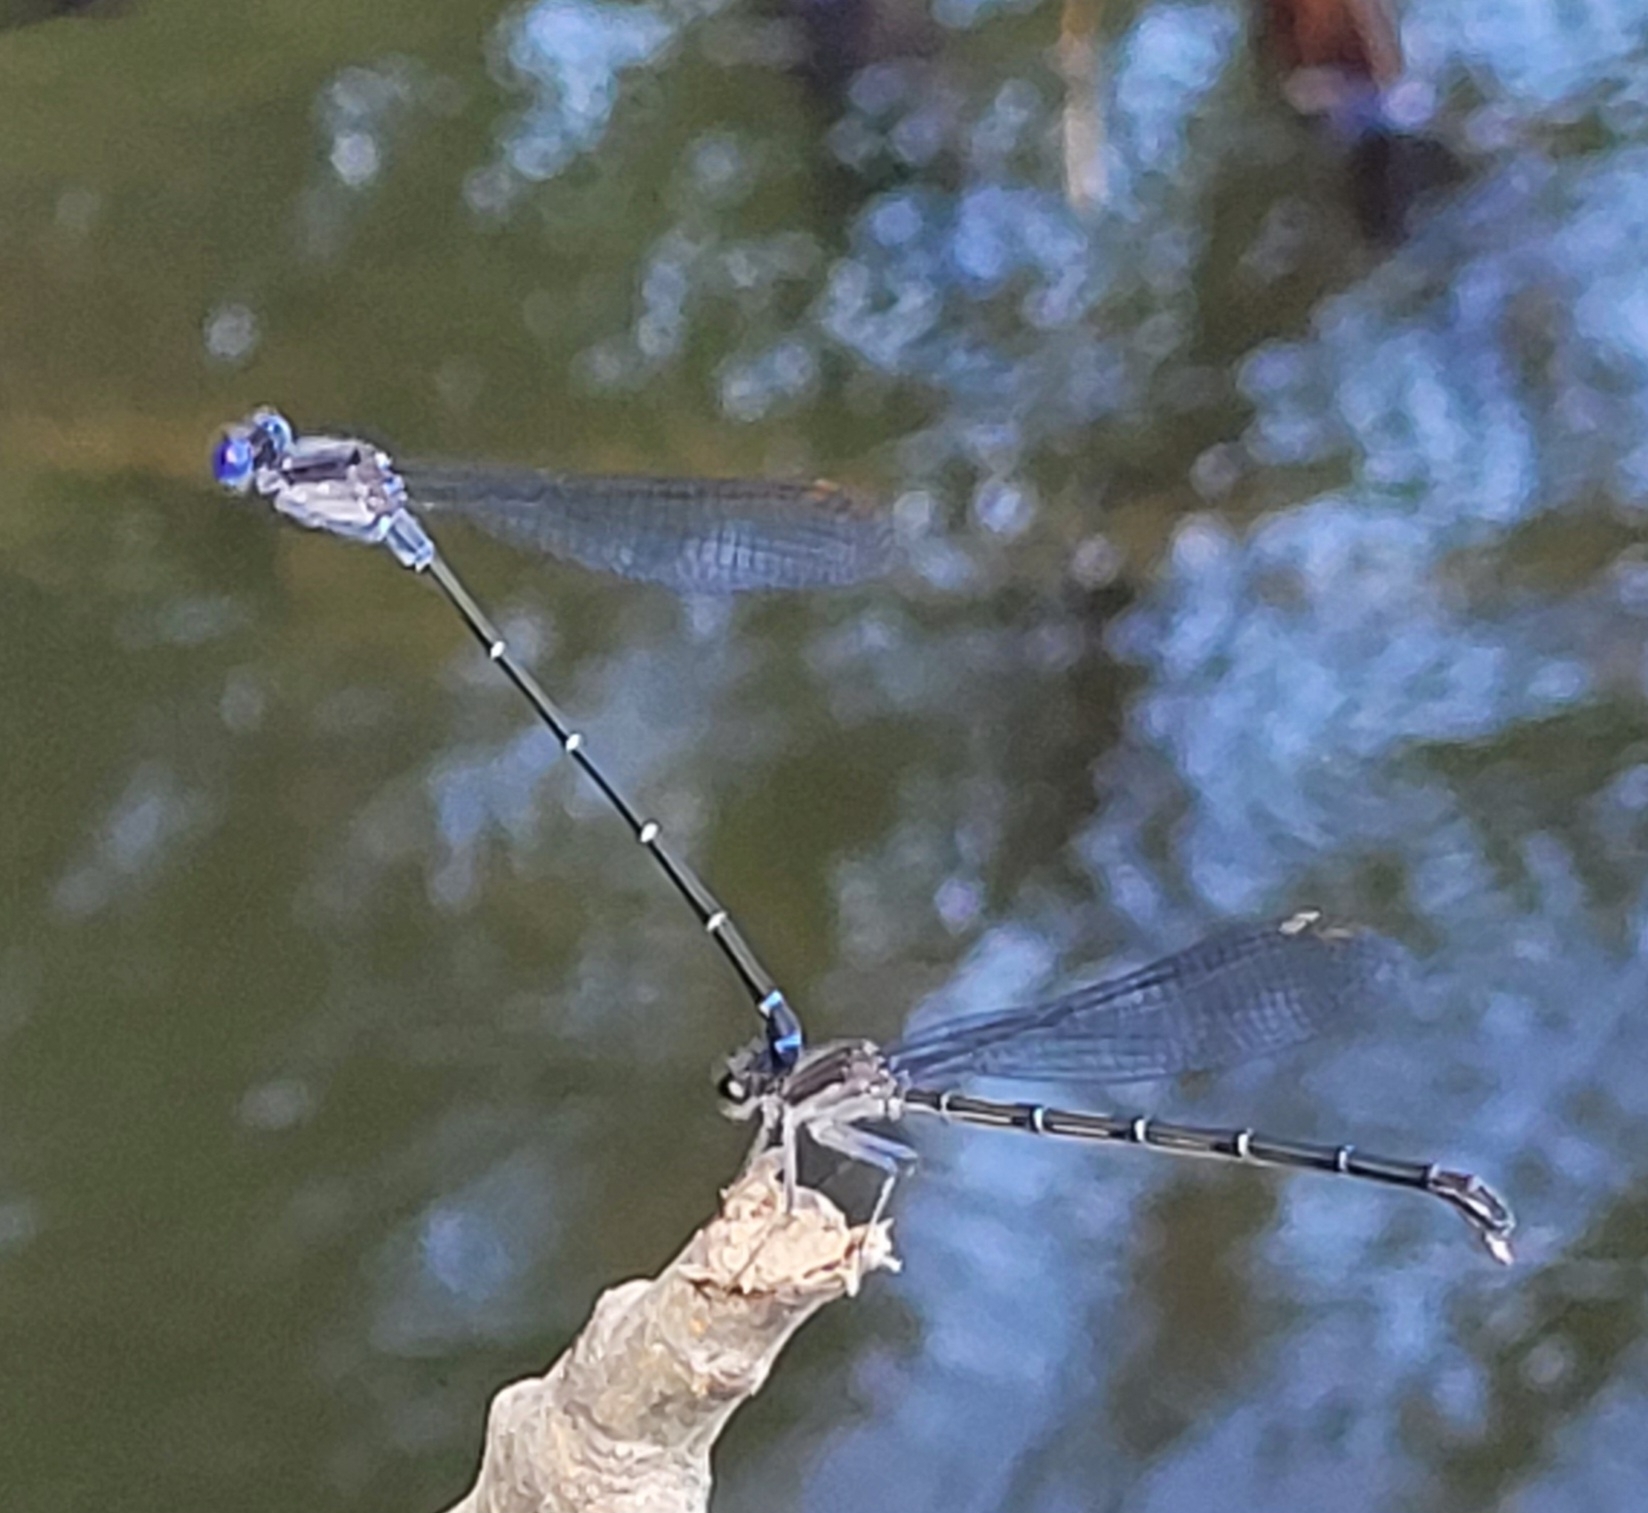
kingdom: Animalia
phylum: Arthropoda
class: Insecta
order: Odonata
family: Coenagrionidae
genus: Argia
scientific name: Argia translata
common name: Dusky dancer
